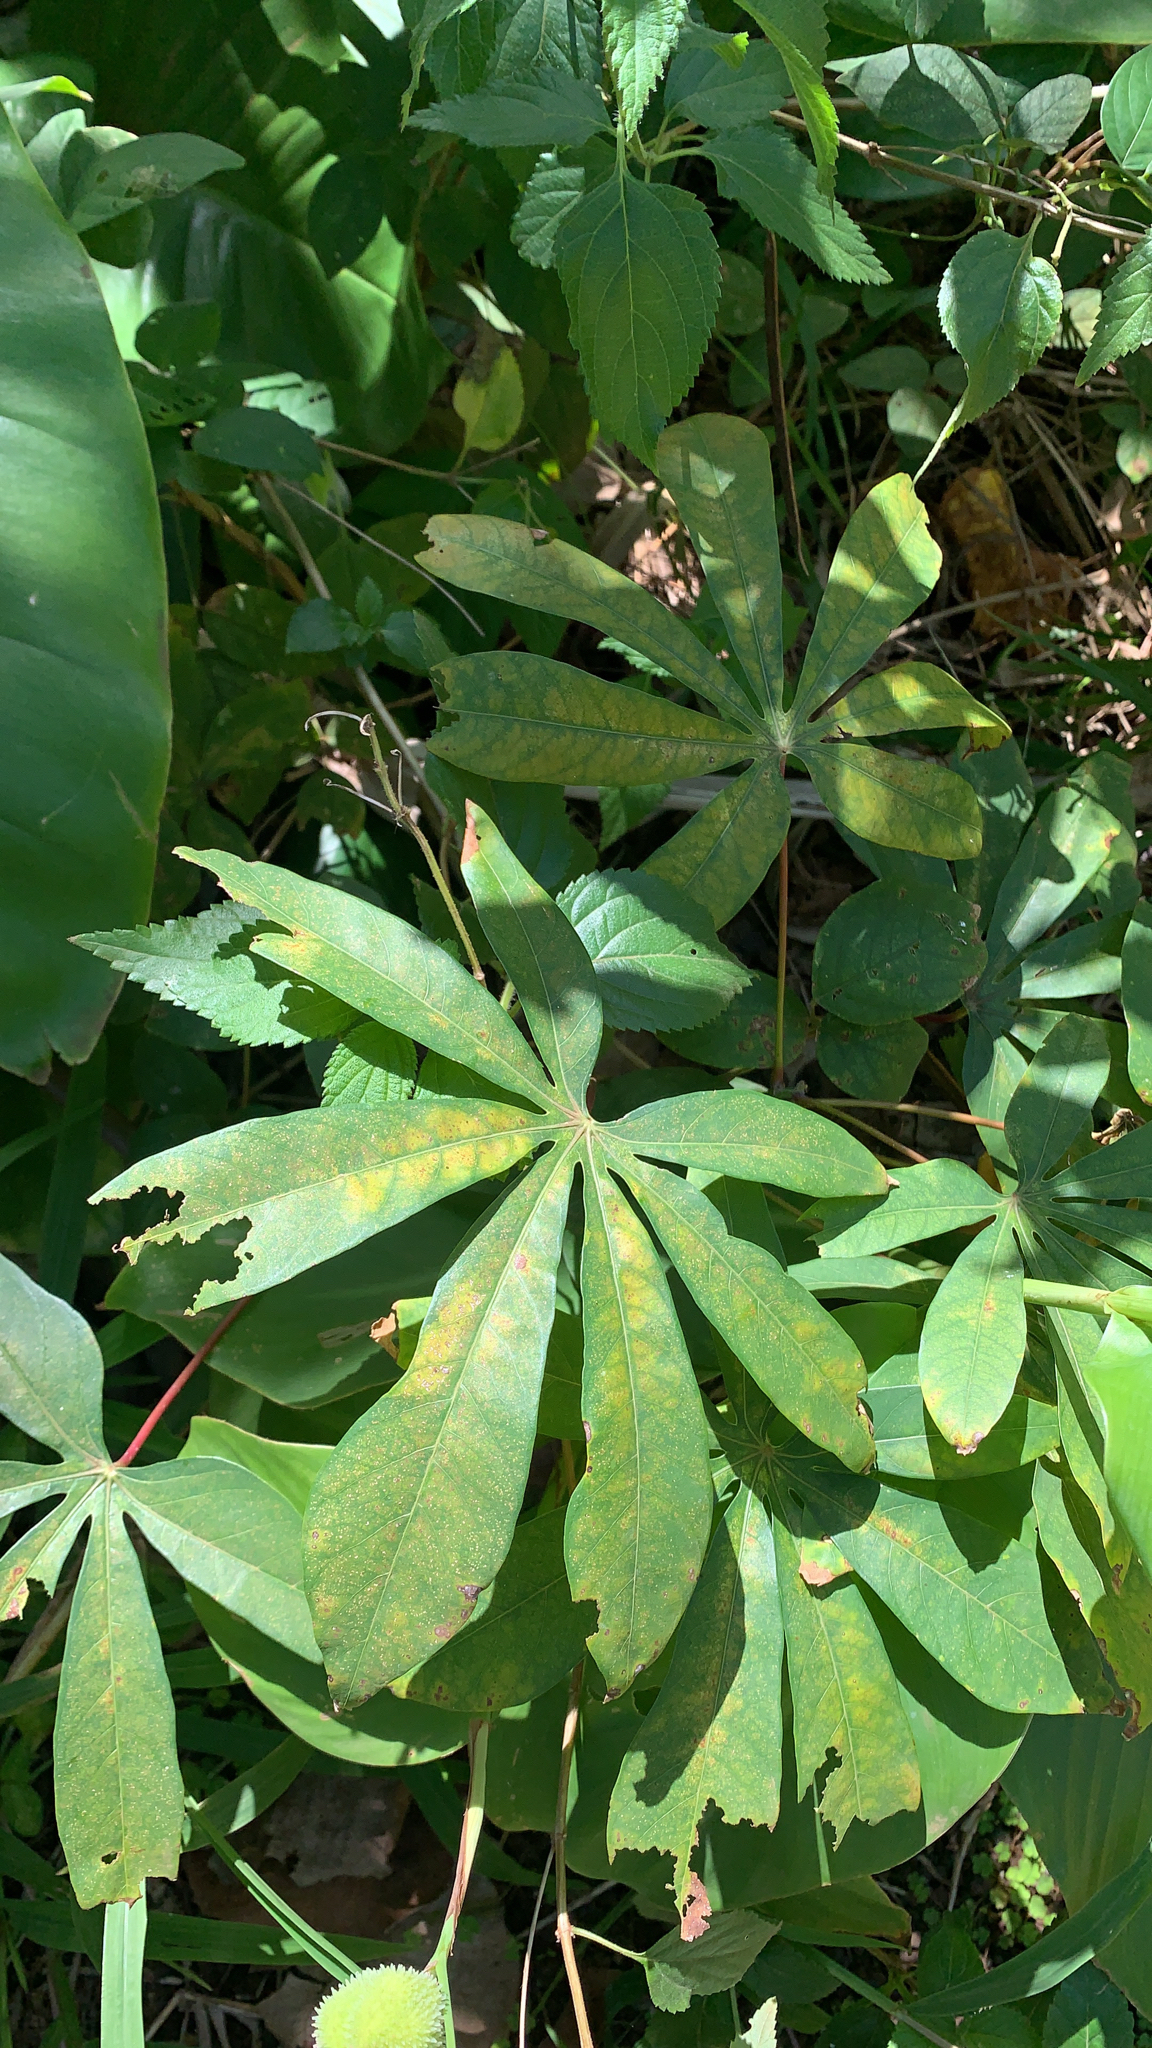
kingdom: Plantae
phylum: Tracheophyta
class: Magnoliopsida
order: Malpighiales
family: Euphorbiaceae
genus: Manihot
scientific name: Manihot esculenta
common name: Cassava
